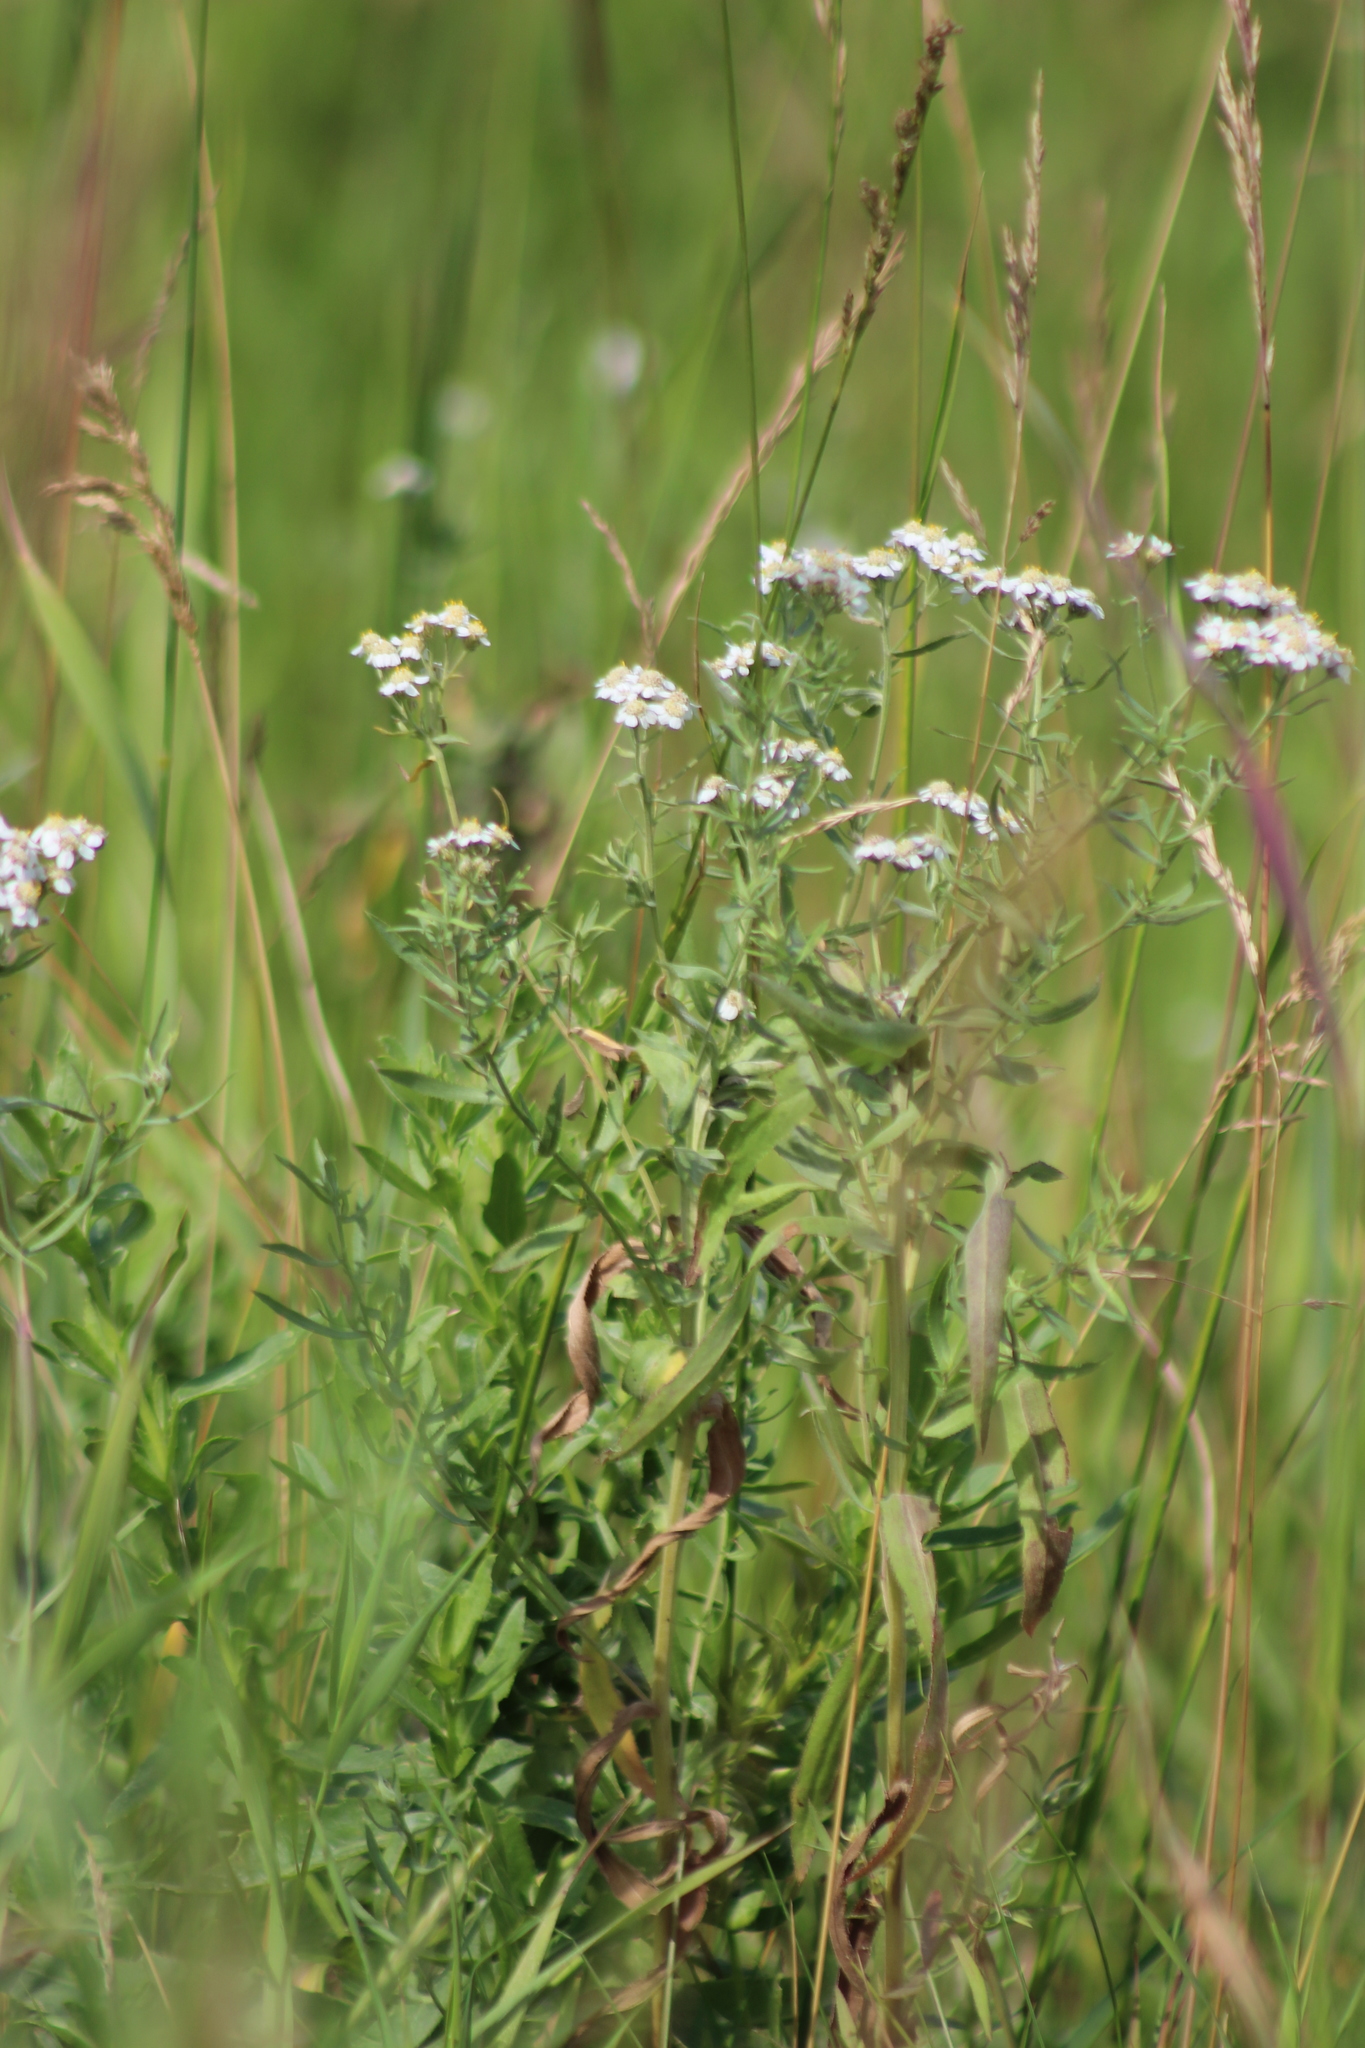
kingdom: Plantae
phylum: Tracheophyta
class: Magnoliopsida
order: Asterales
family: Asteraceae
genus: Achillea
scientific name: Achillea salicifolia
